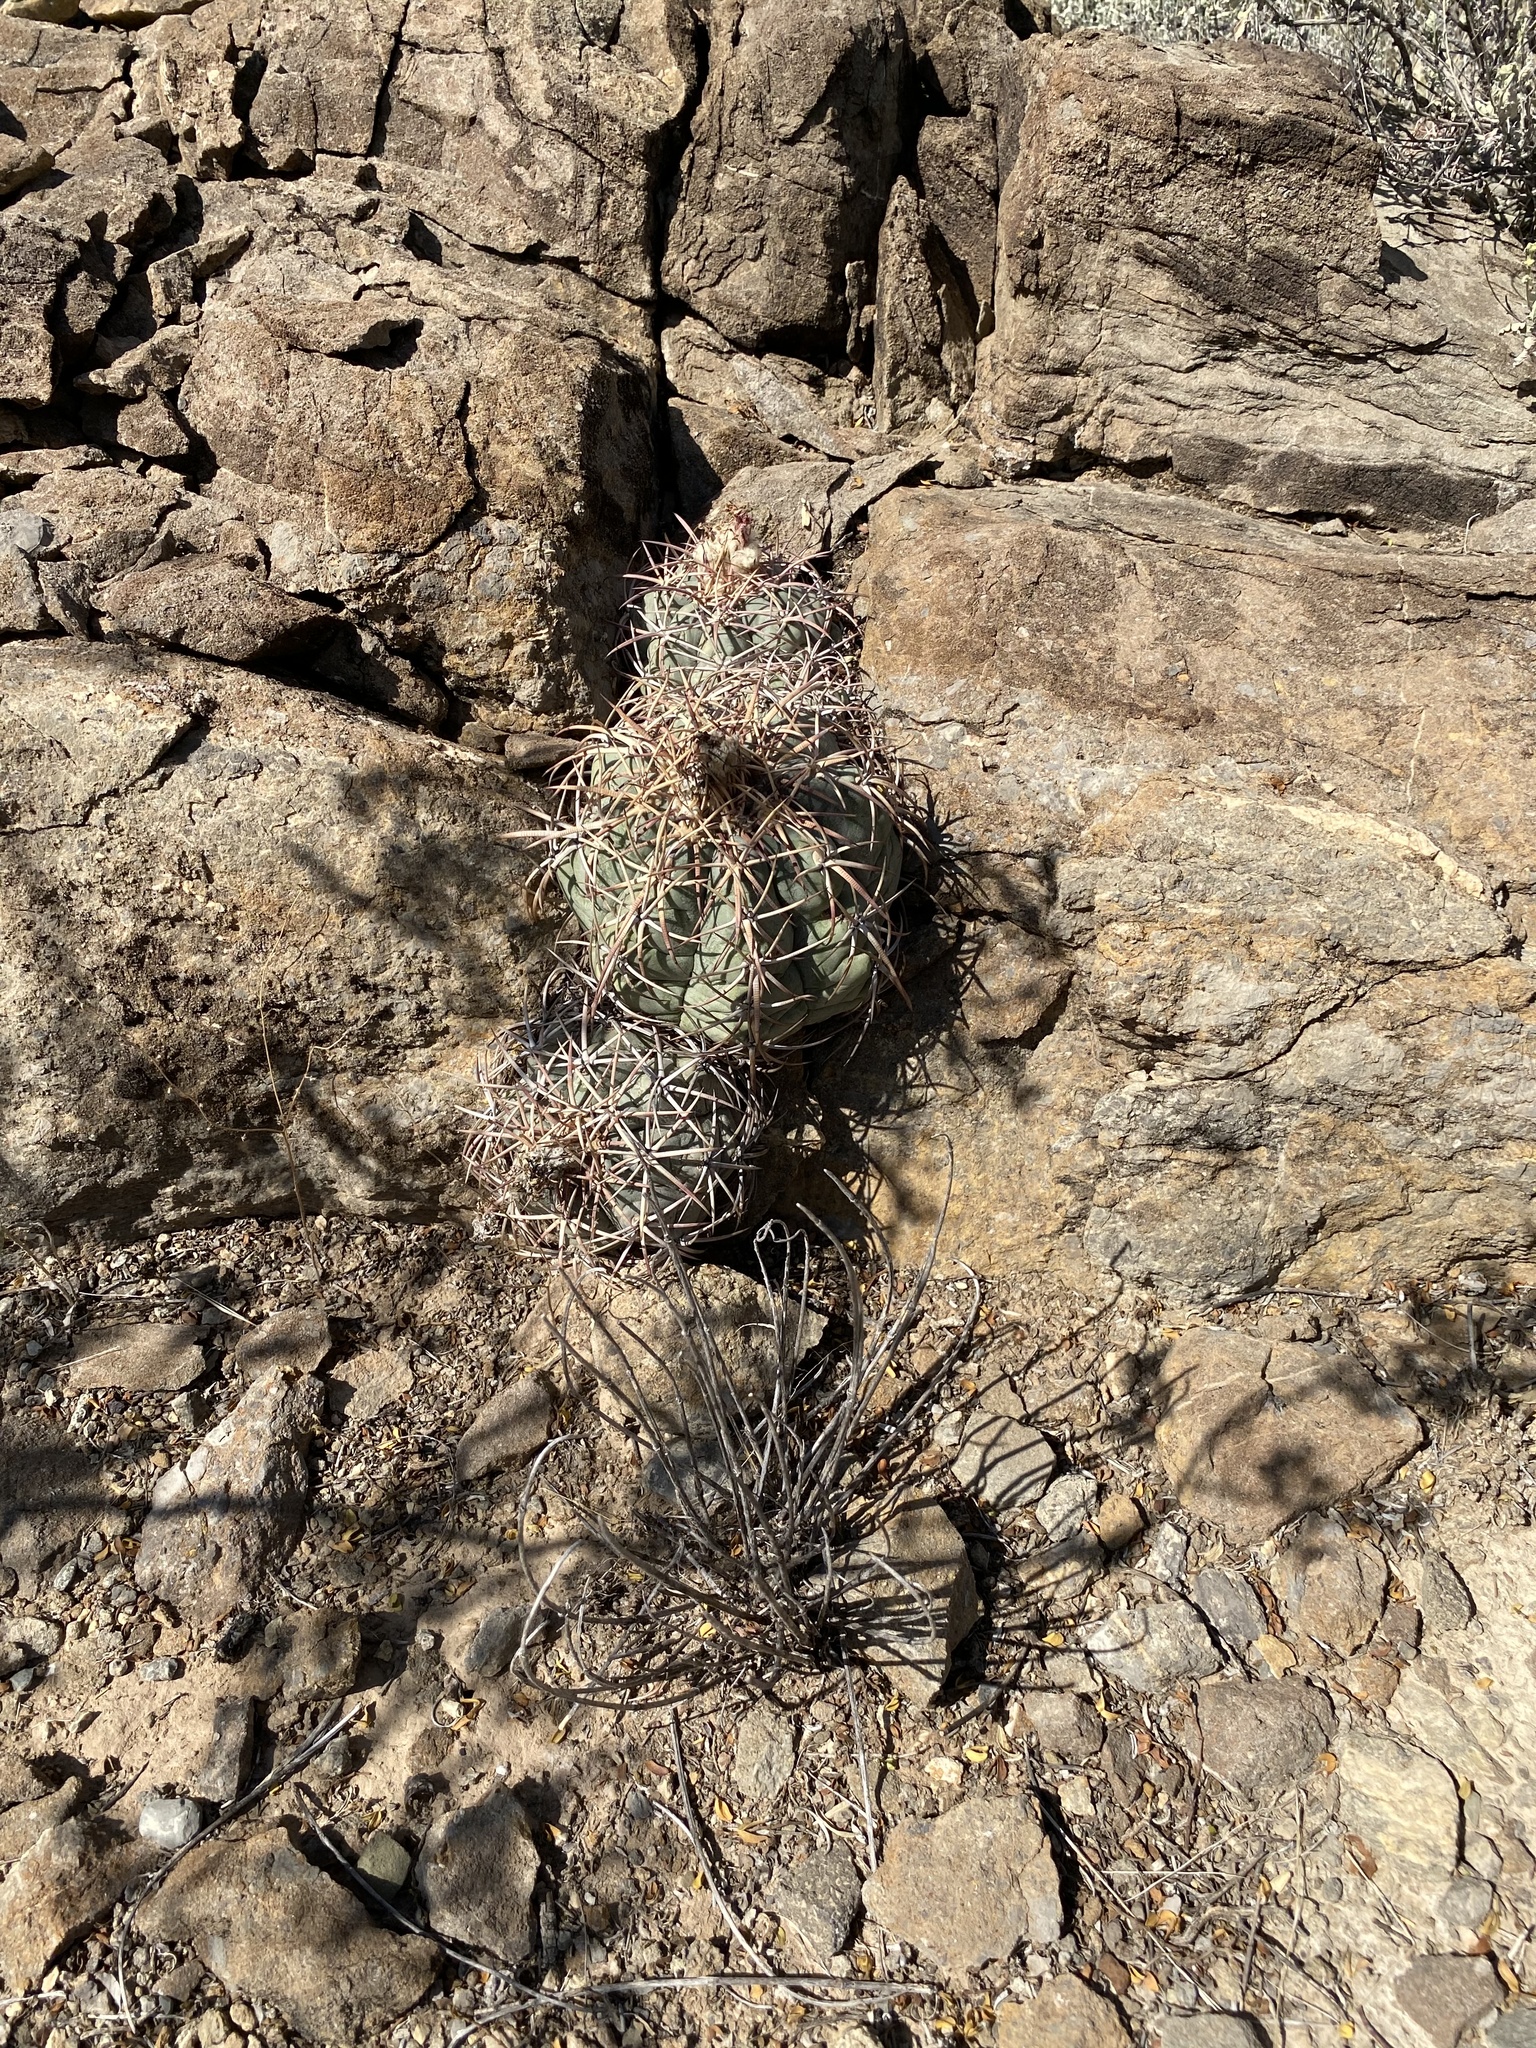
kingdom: Plantae
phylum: Tracheophyta
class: Magnoliopsida
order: Caryophyllales
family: Cactaceae
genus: Echinocactus
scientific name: Echinocactus horizonthalonius
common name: Devilshead
